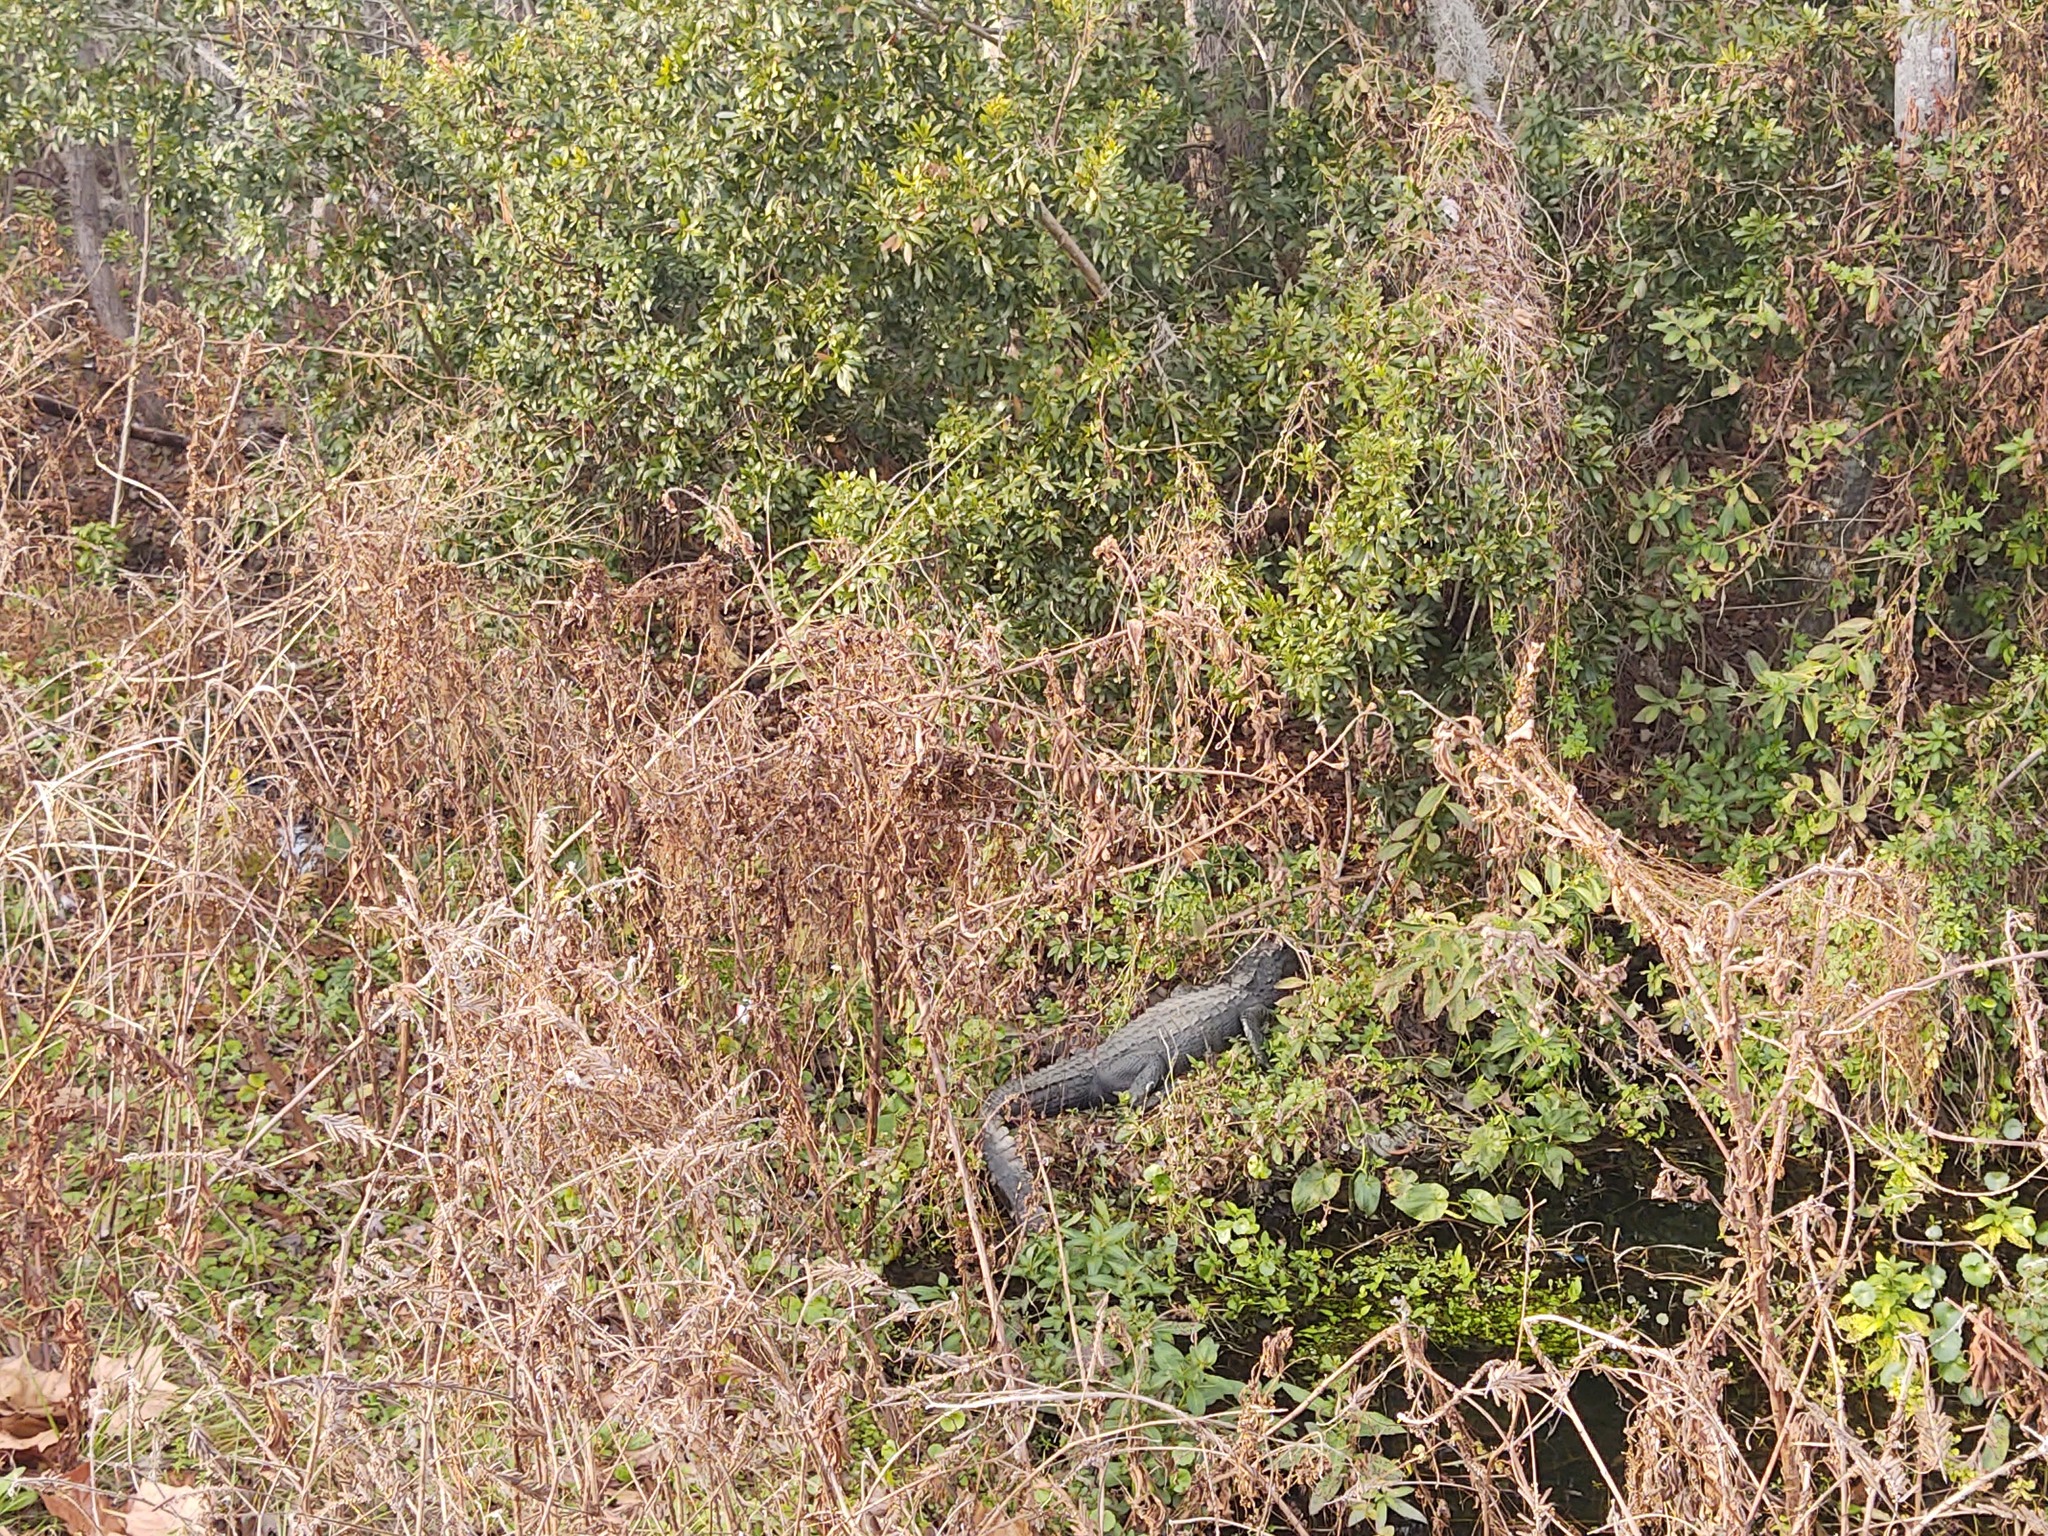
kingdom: Animalia
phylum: Chordata
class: Crocodylia
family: Alligatoridae
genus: Alligator
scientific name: Alligator mississippiensis
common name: American alligator
